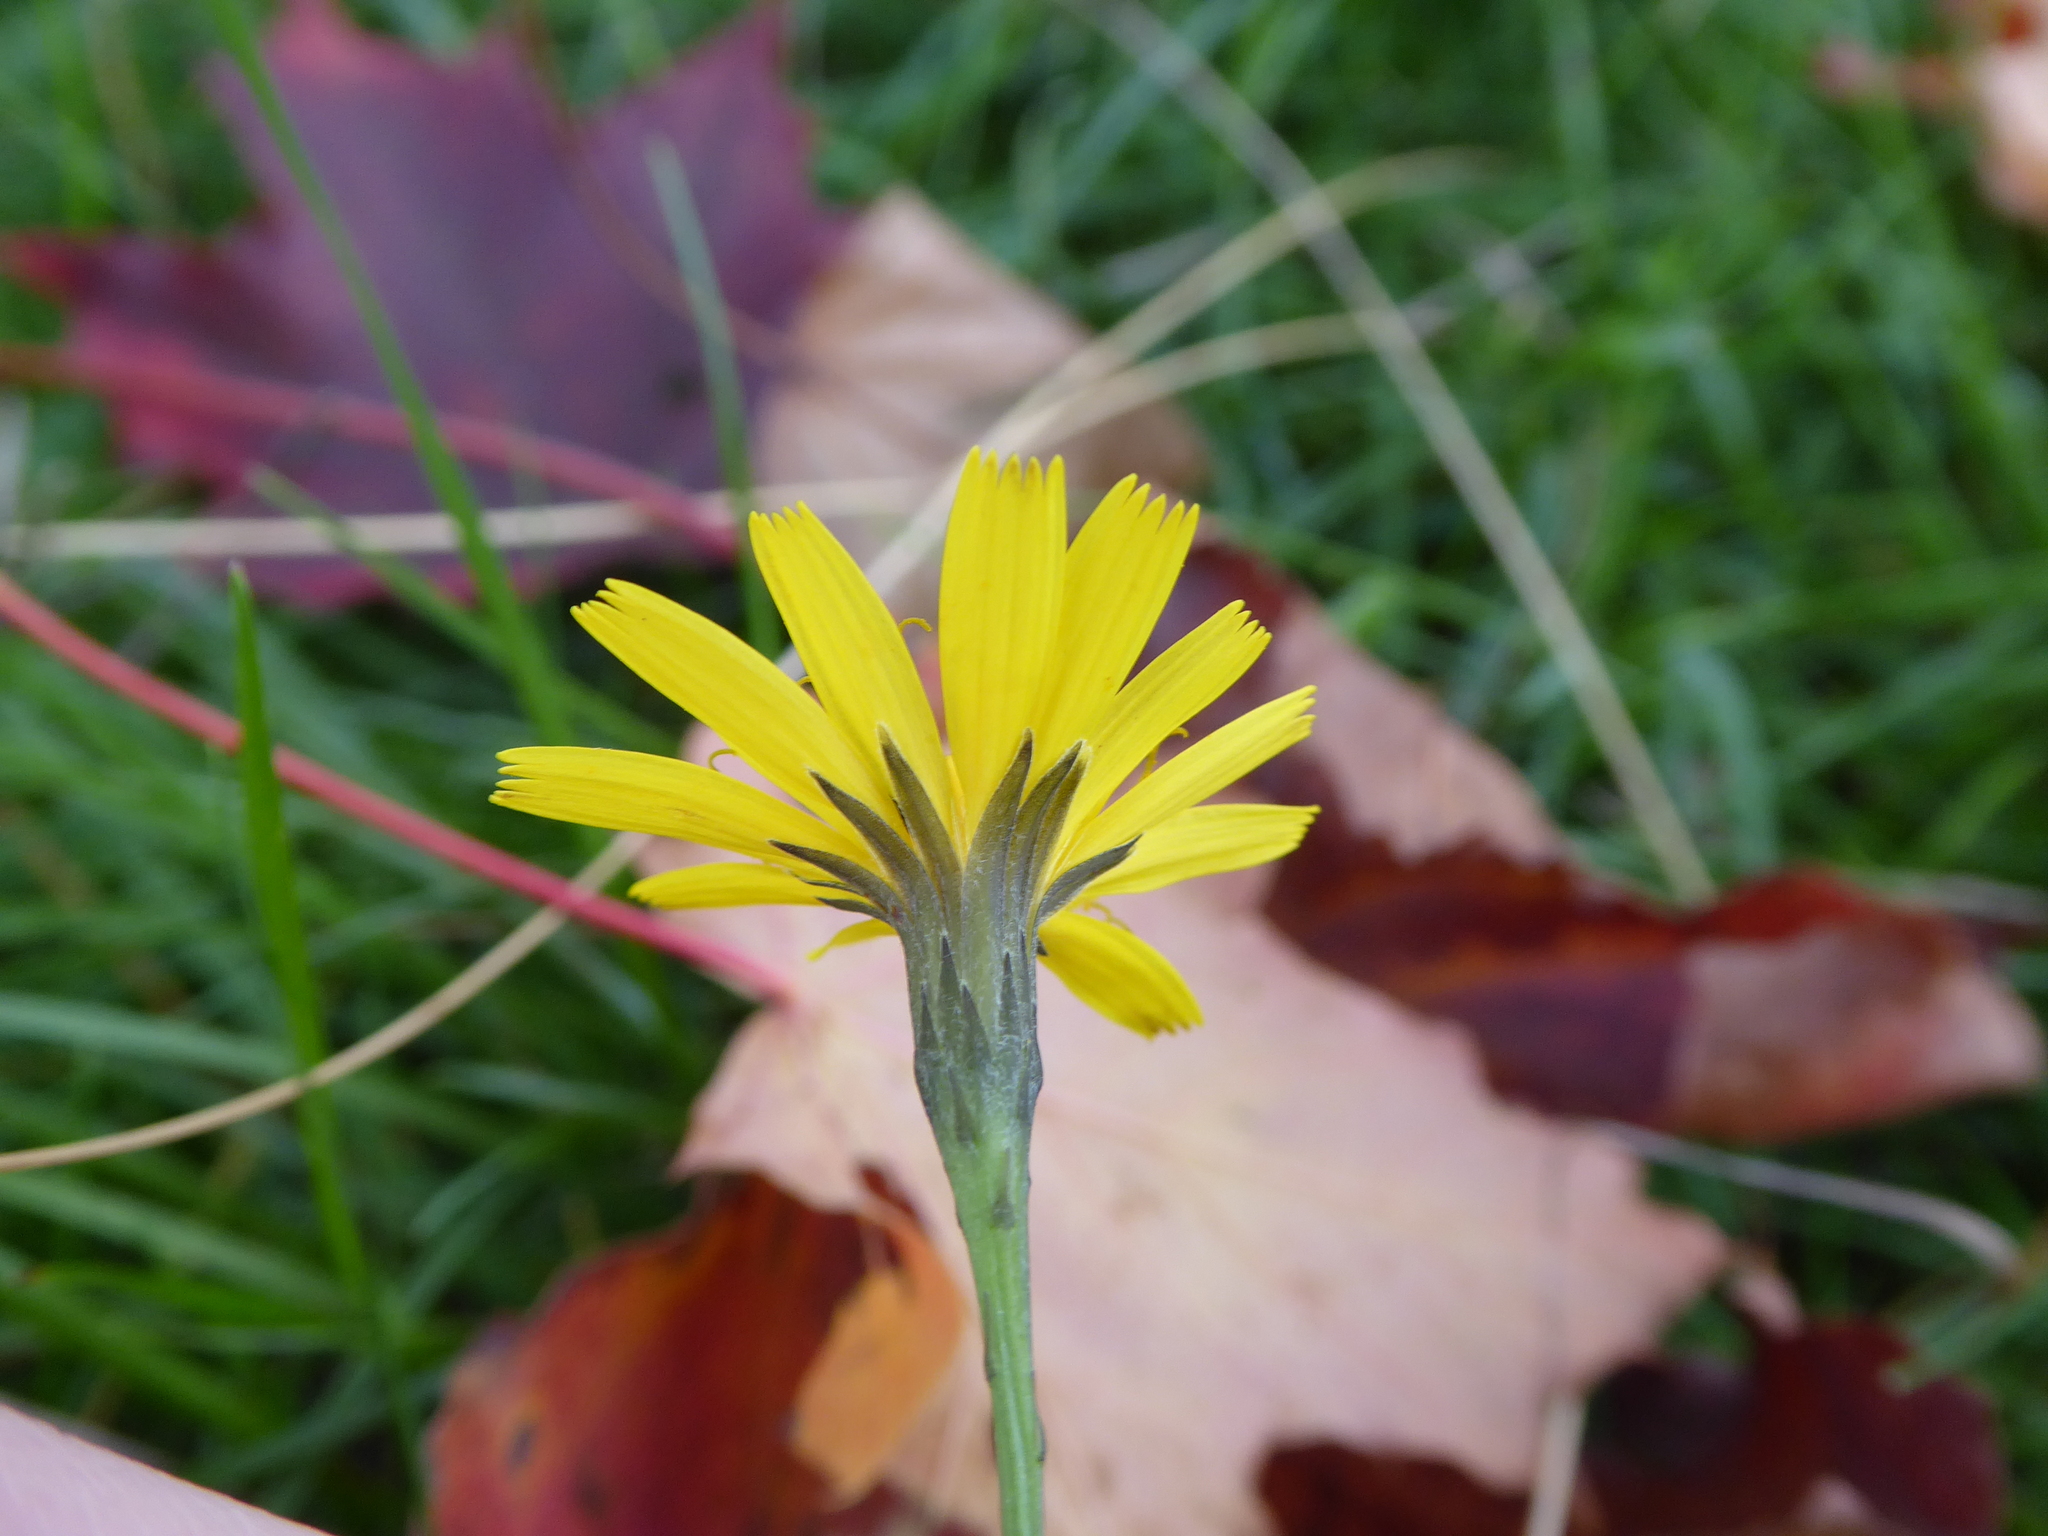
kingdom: Plantae
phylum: Tracheophyta
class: Magnoliopsida
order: Asterales
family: Asteraceae
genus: Scorzoneroides
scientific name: Scorzoneroides autumnalis
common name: Autumn hawkbit
